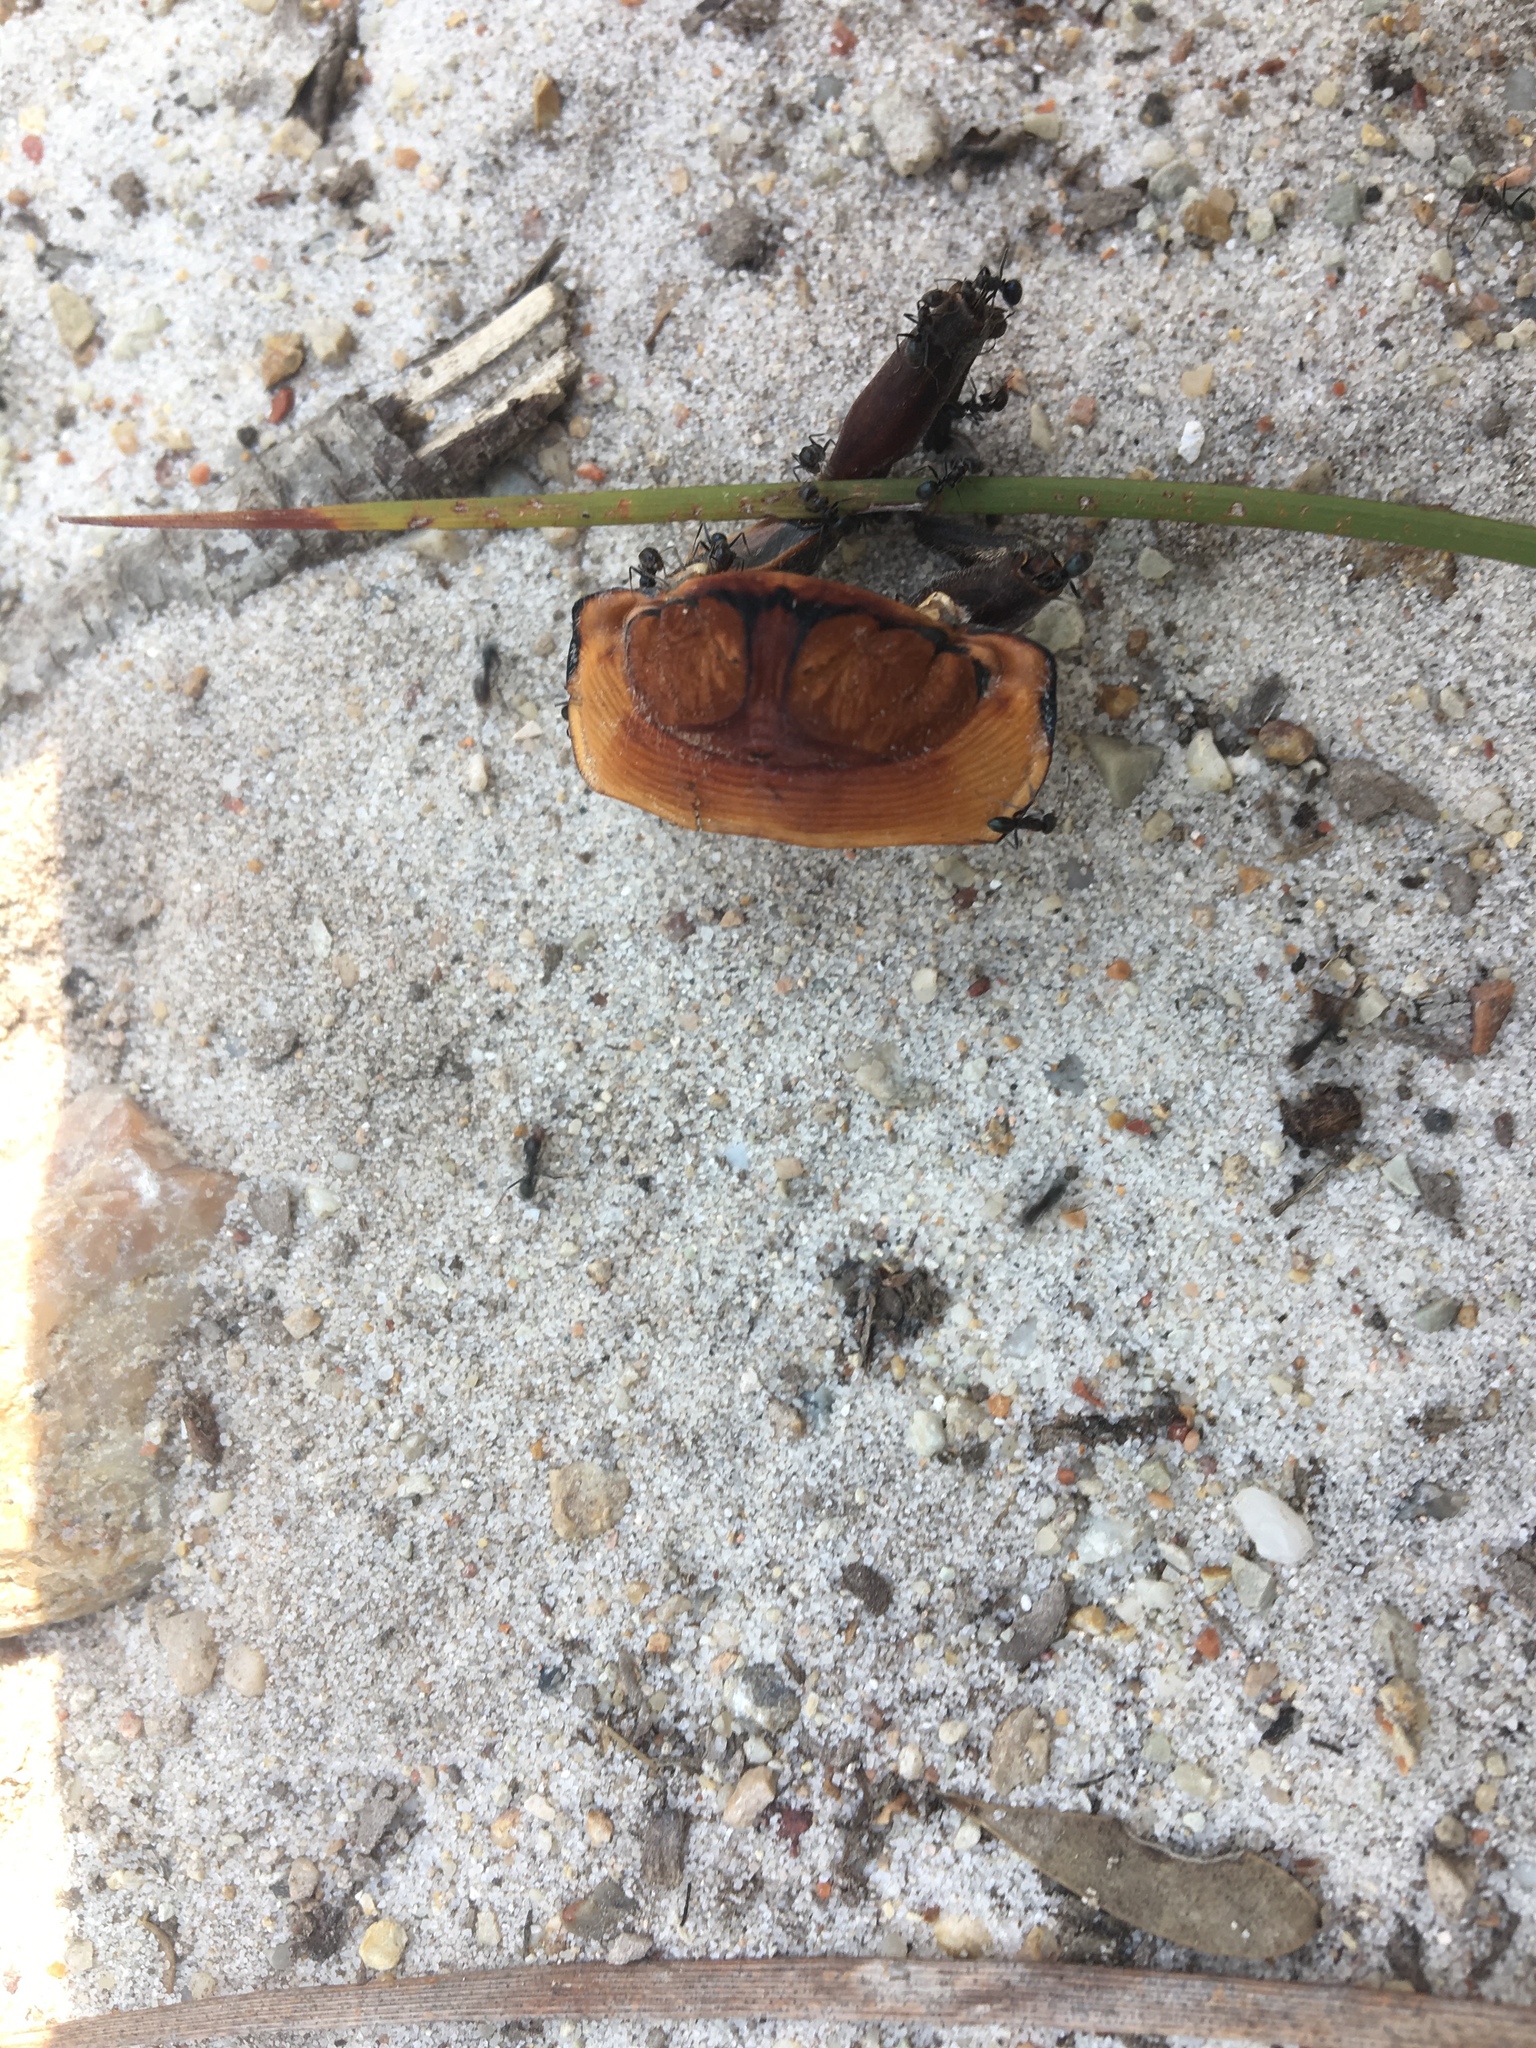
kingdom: Animalia
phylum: Arthropoda
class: Insecta
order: Hemiptera
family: Cicadidae
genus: Thopha
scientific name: Thopha saccata
